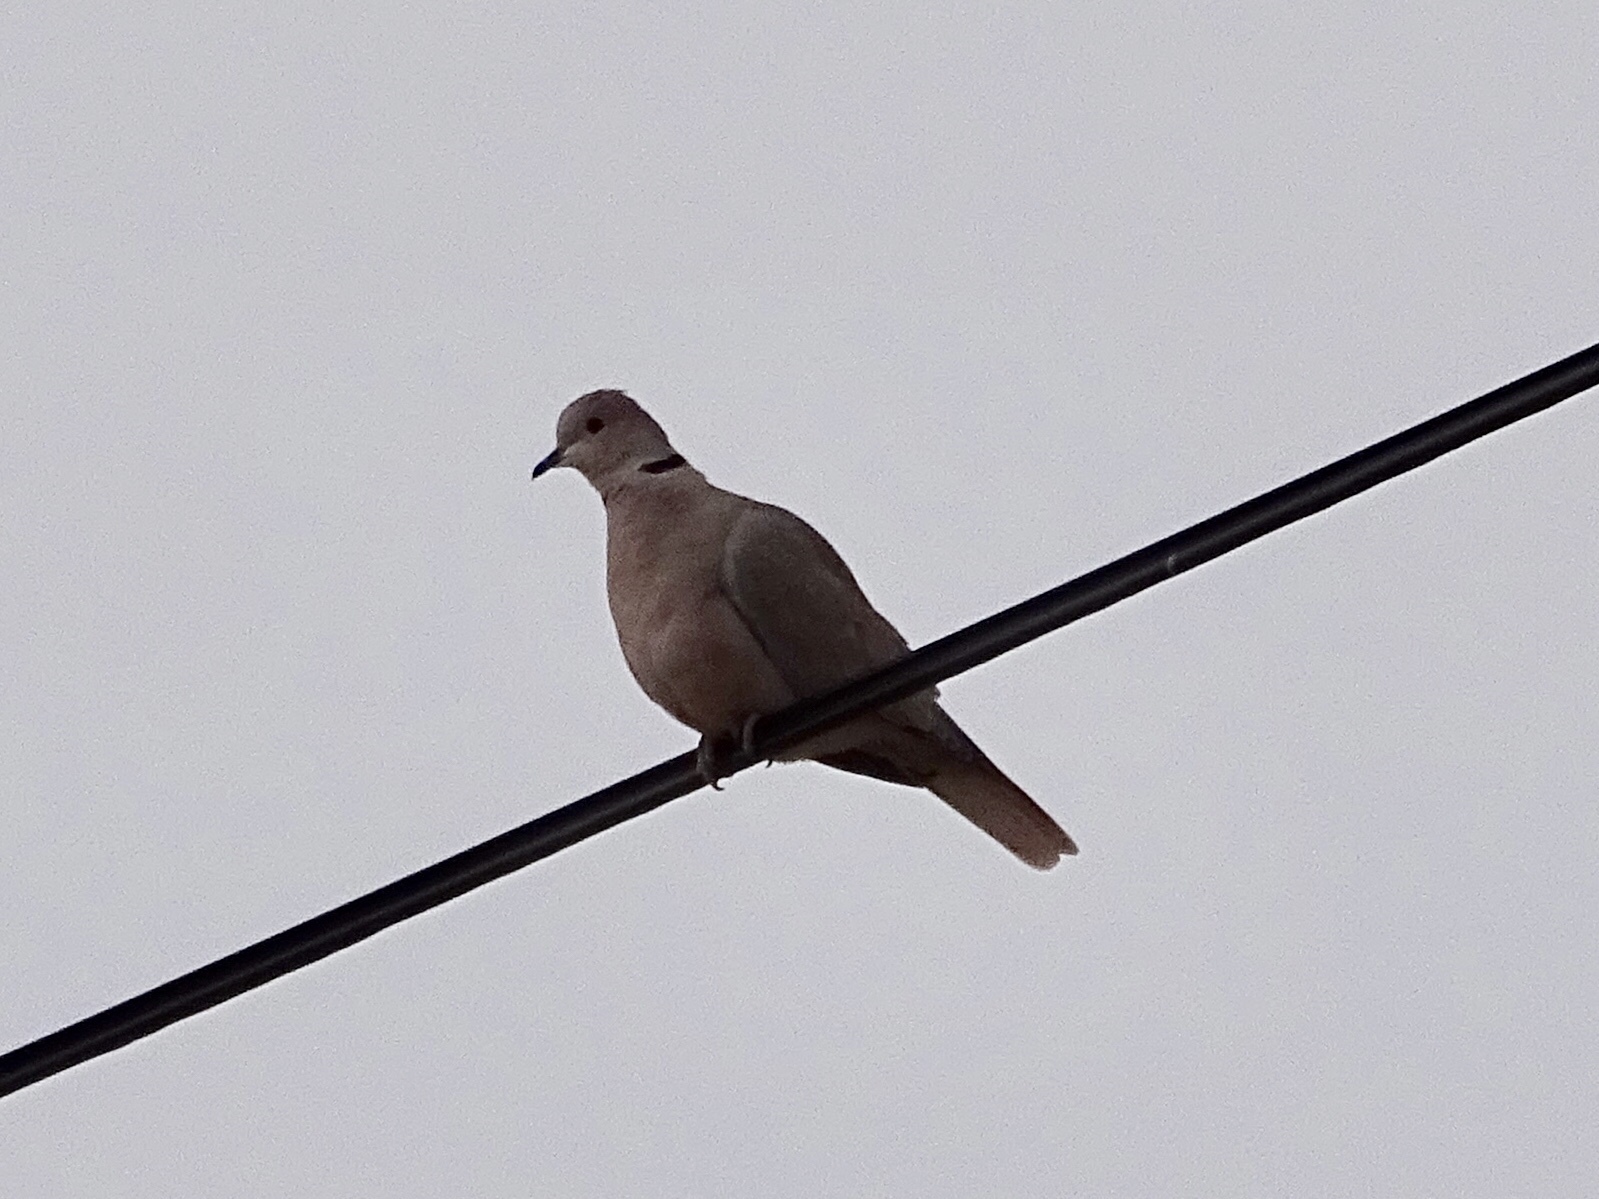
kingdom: Animalia
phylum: Chordata
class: Aves
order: Columbiformes
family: Columbidae
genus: Streptopelia
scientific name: Streptopelia decaocto
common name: Eurasian collared dove
